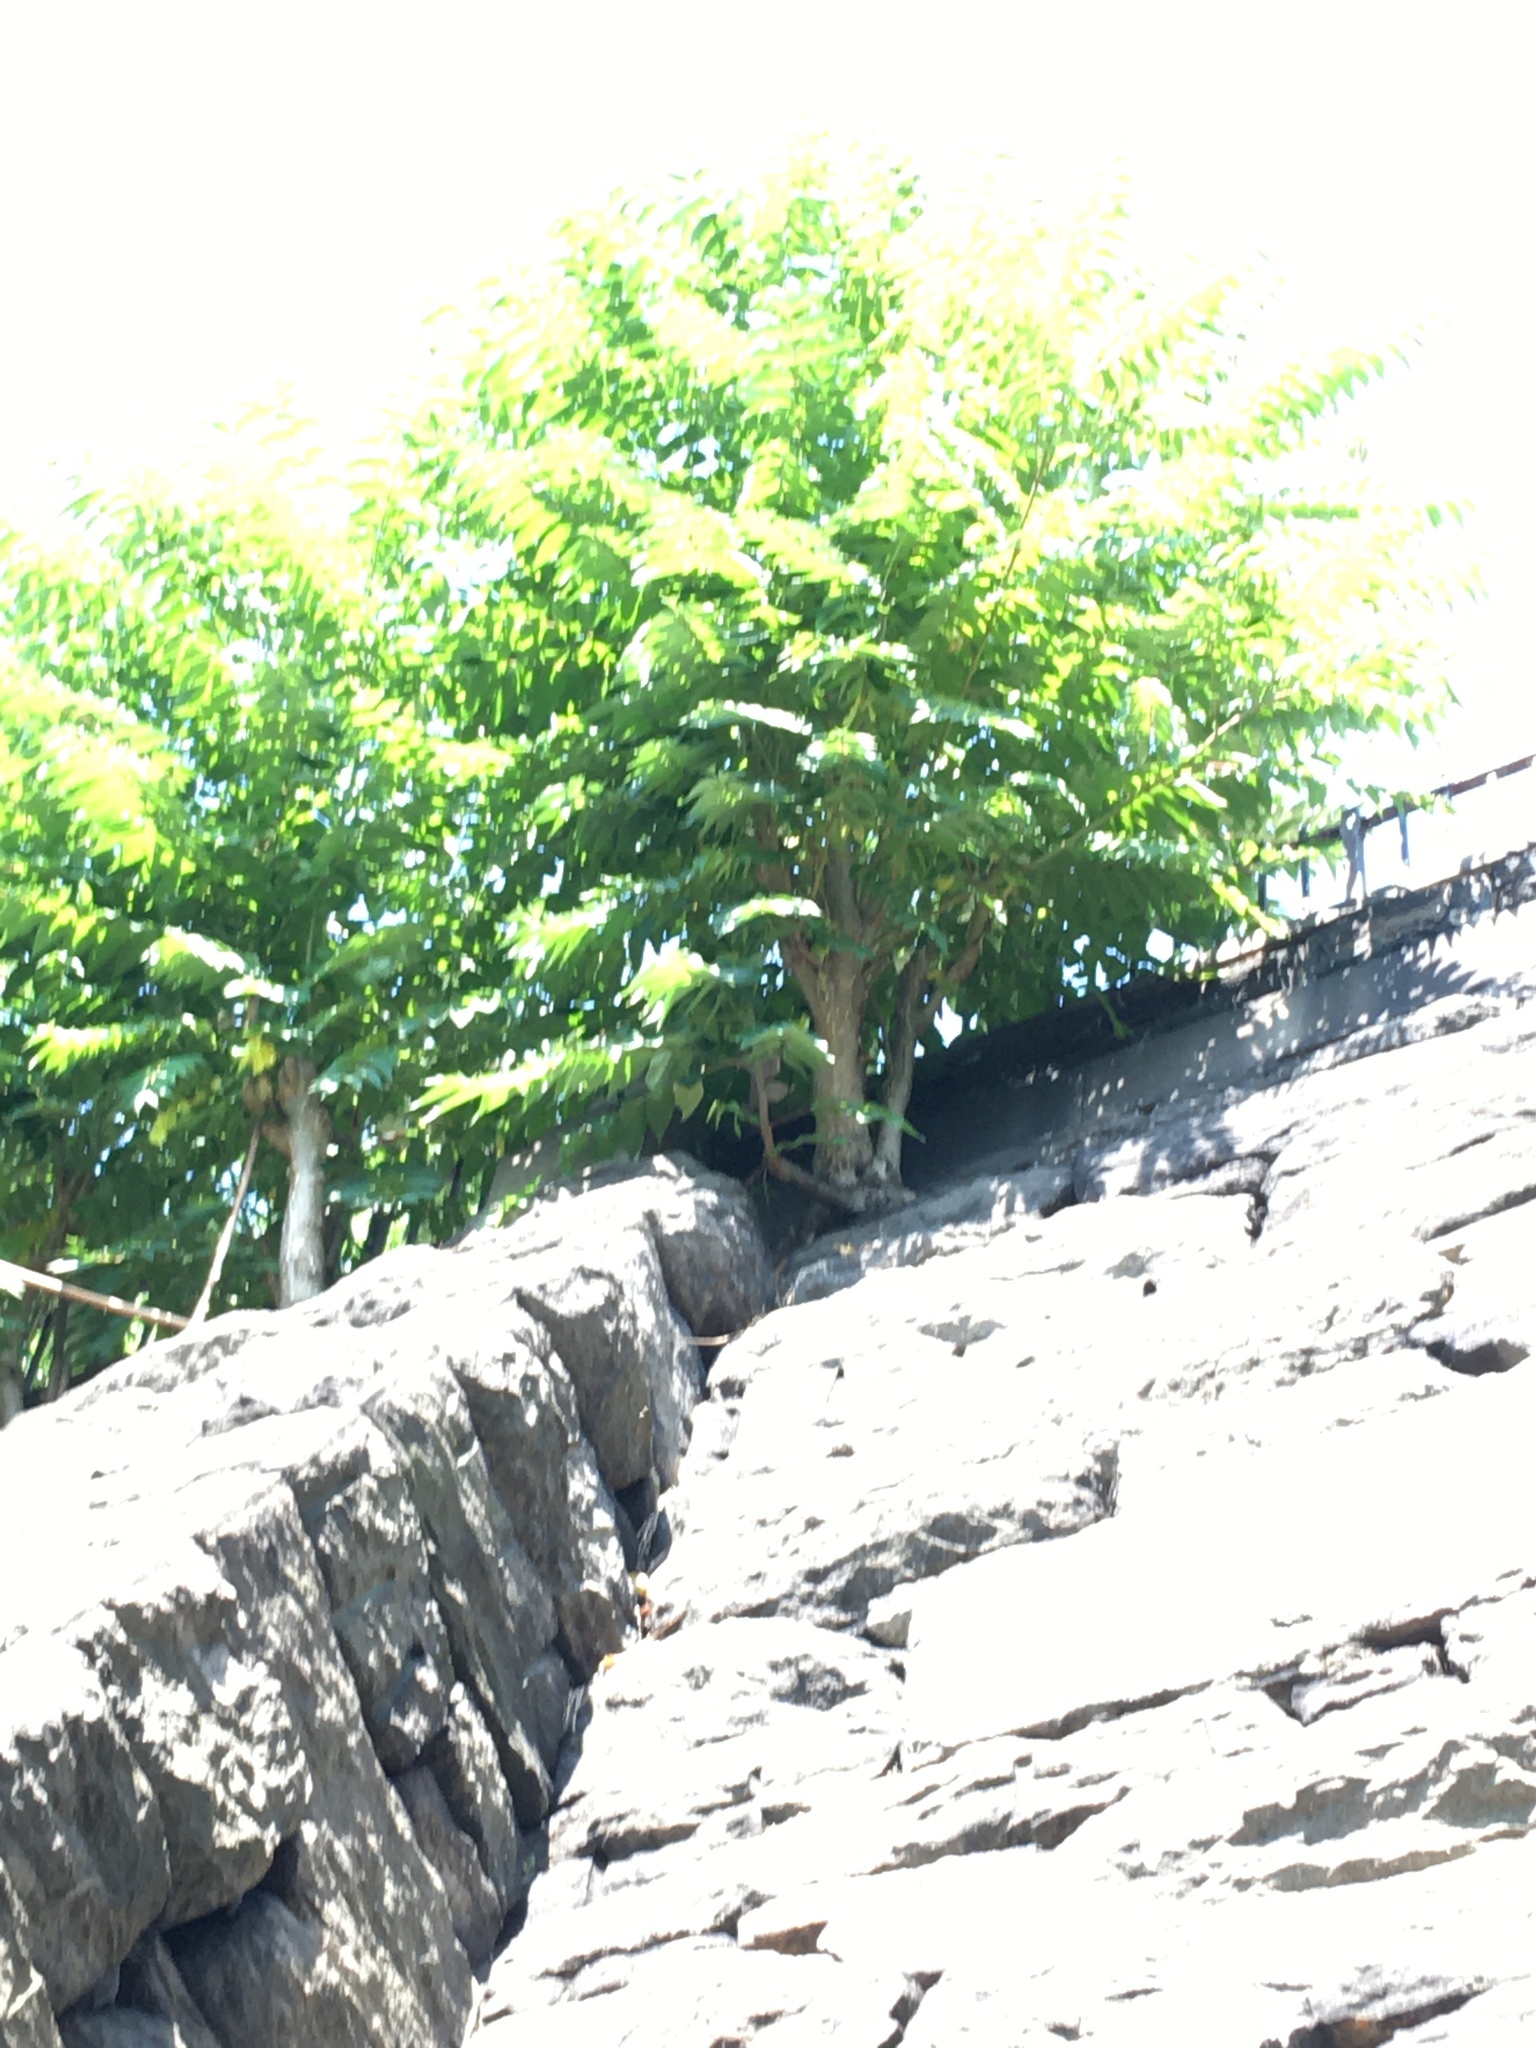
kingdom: Plantae
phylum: Tracheophyta
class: Magnoliopsida
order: Sapindales
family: Simaroubaceae
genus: Ailanthus
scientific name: Ailanthus altissima
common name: Tree-of-heaven
